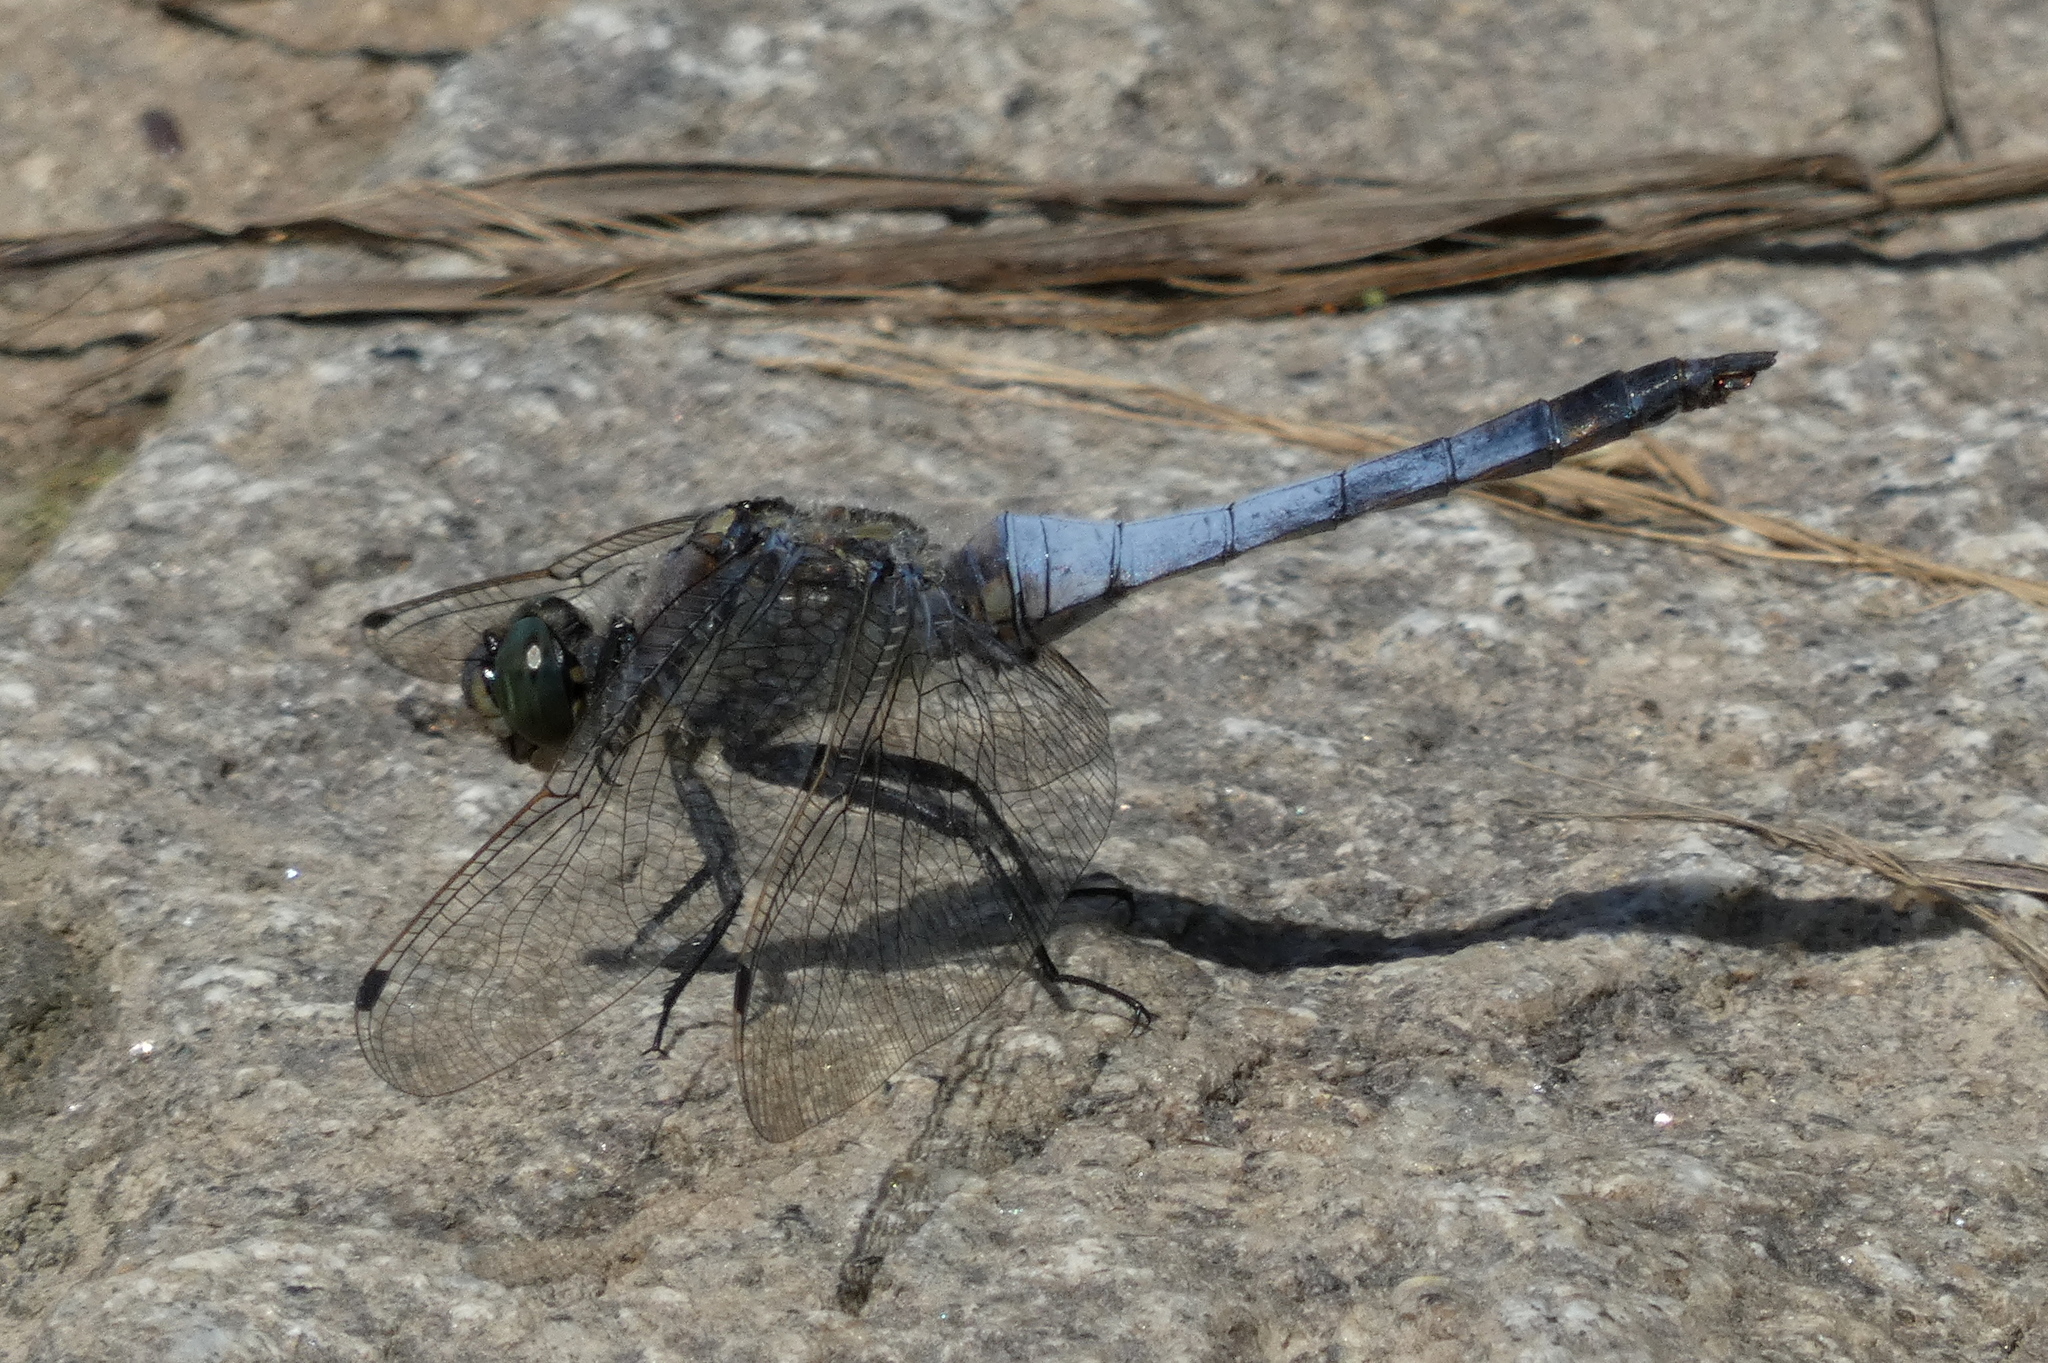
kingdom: Animalia
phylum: Arthropoda
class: Insecta
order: Odonata
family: Libellulidae
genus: Orthetrum
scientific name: Orthetrum cancellatum
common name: Black-tailed skimmer
